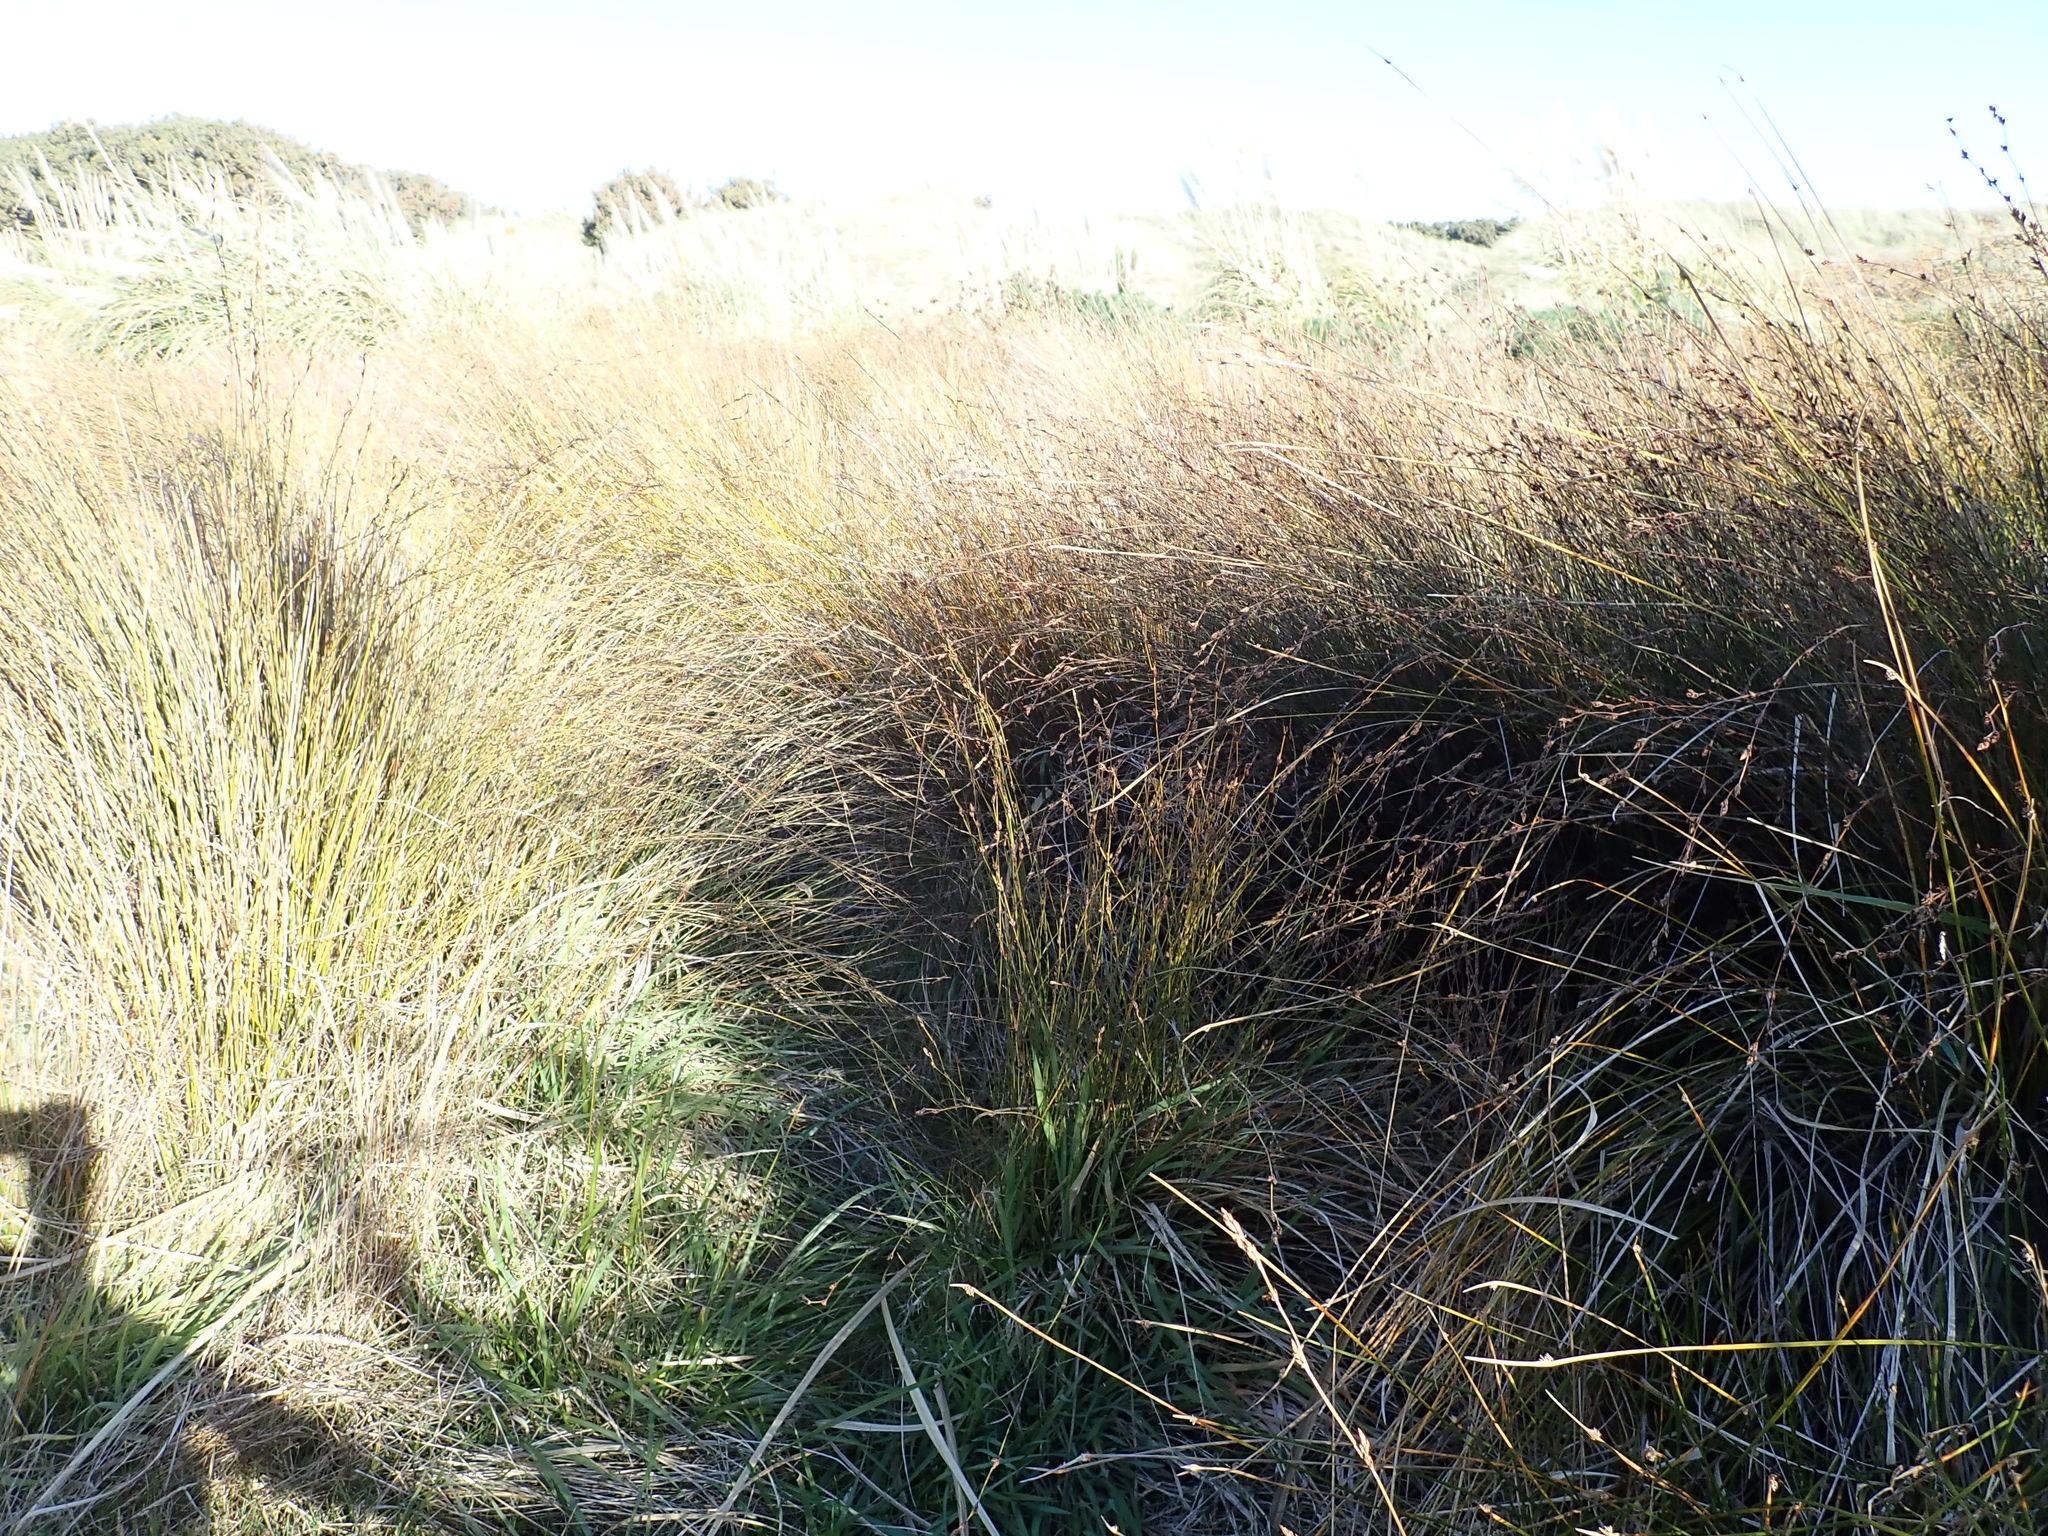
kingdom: Plantae
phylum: Tracheophyta
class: Liliopsida
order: Poales
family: Restionaceae
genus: Apodasmia
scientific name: Apodasmia similis
